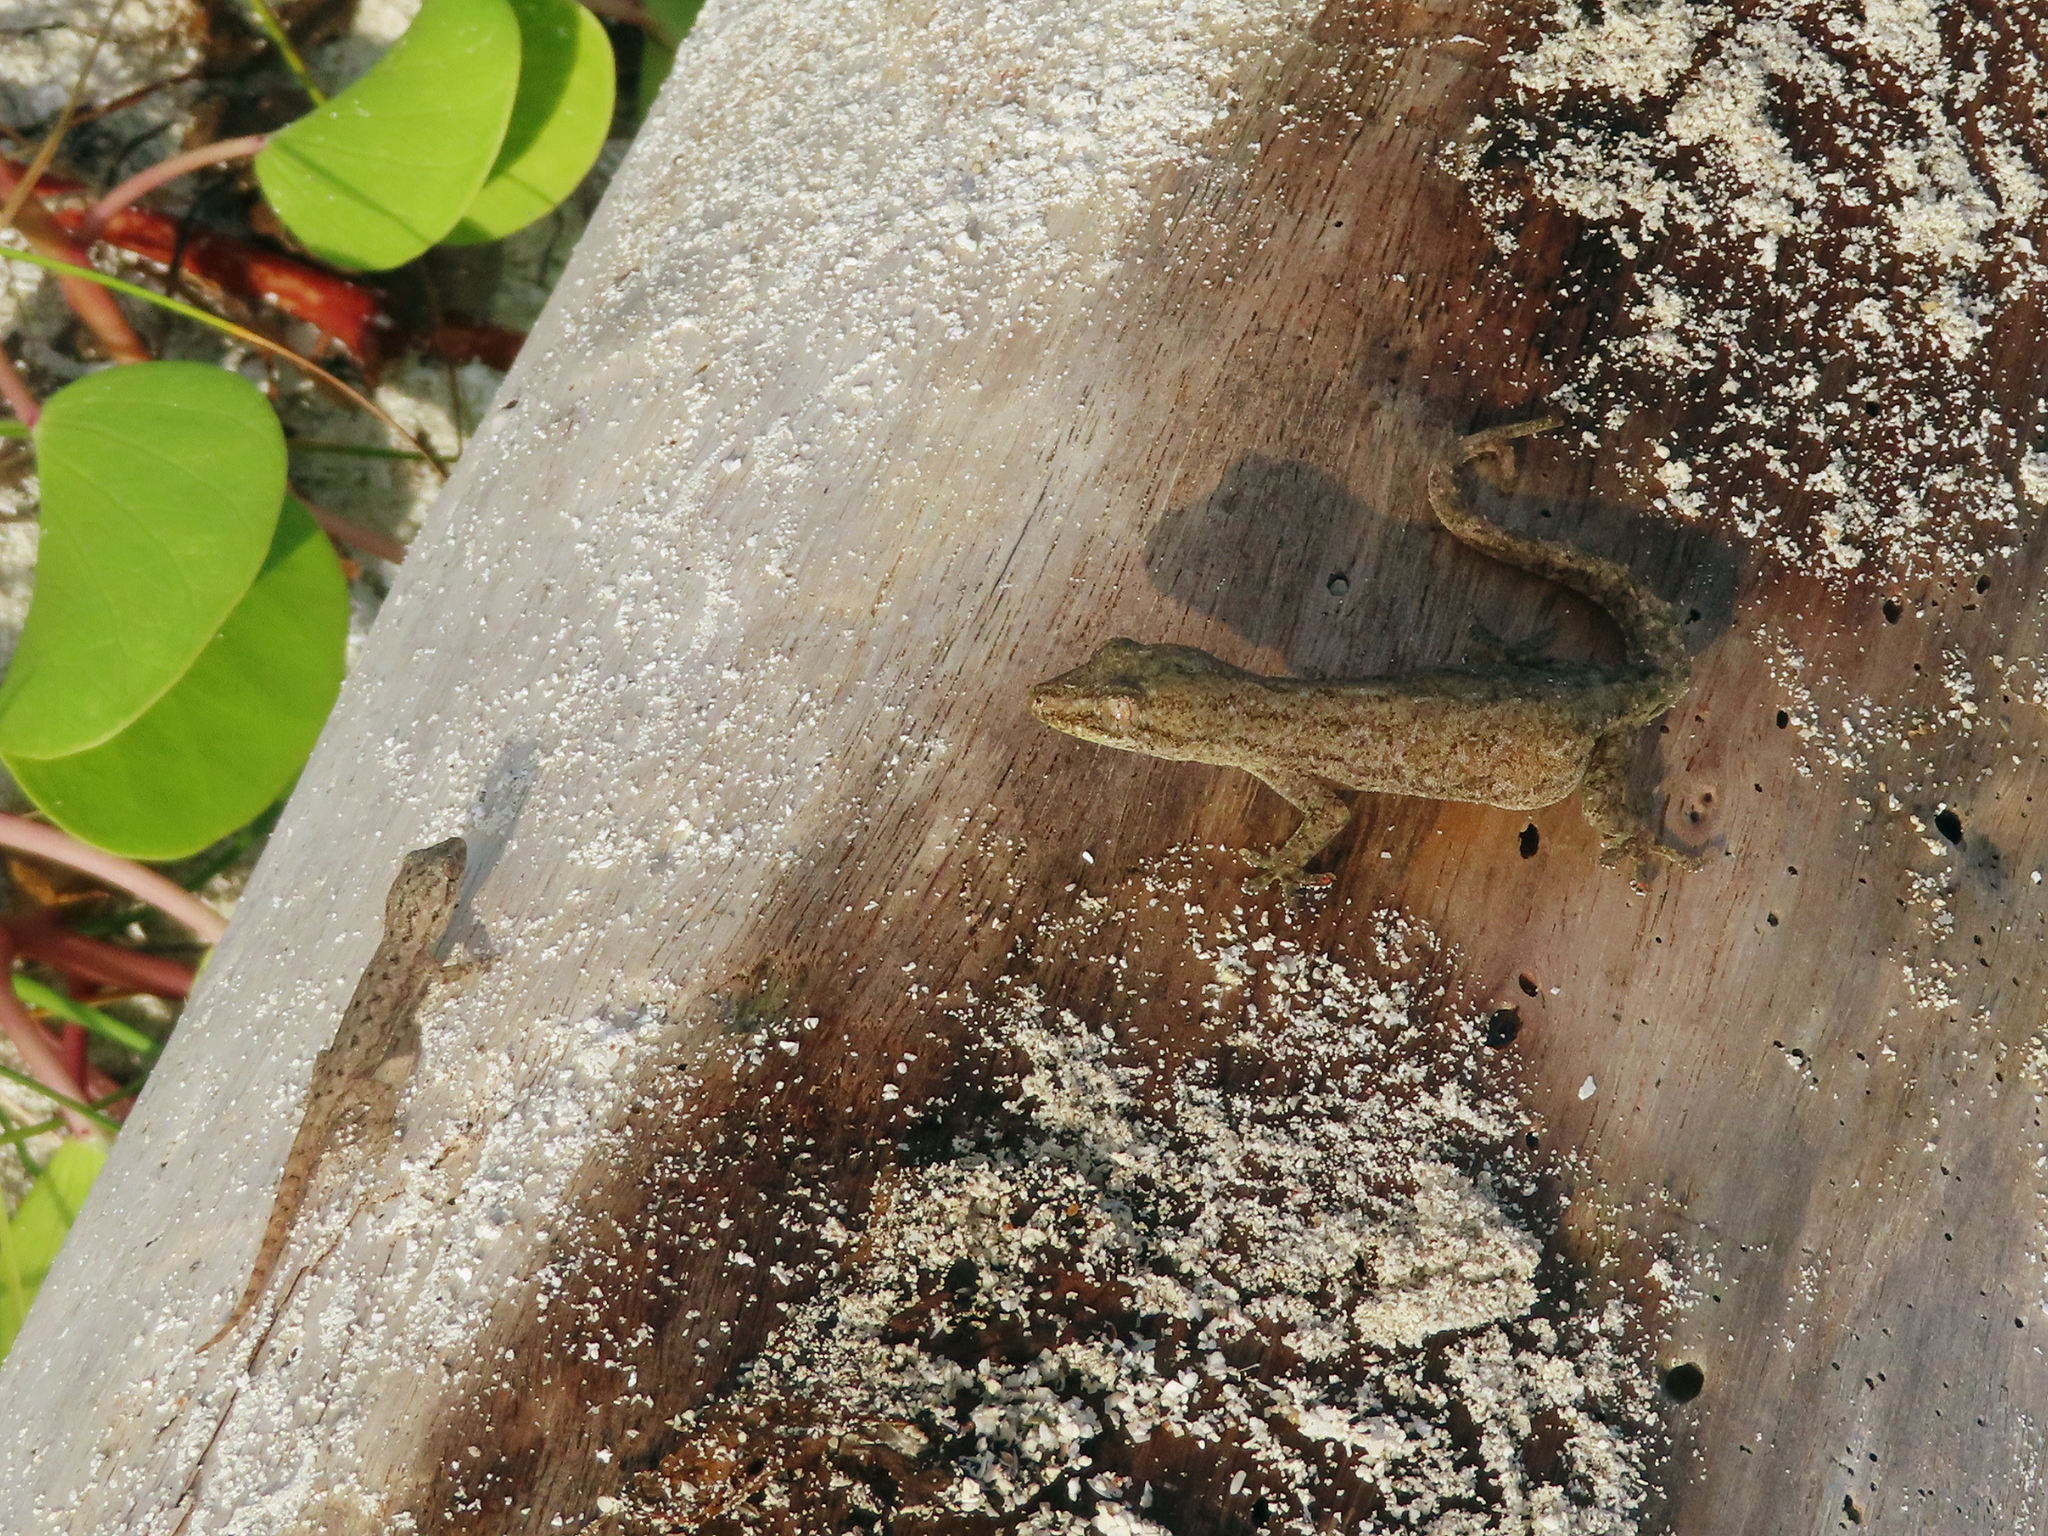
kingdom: Animalia
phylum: Chordata
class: Squamata
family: Gekkonidae
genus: Hemidactylus
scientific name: Hemidactylus frenatus
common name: Common house gecko
